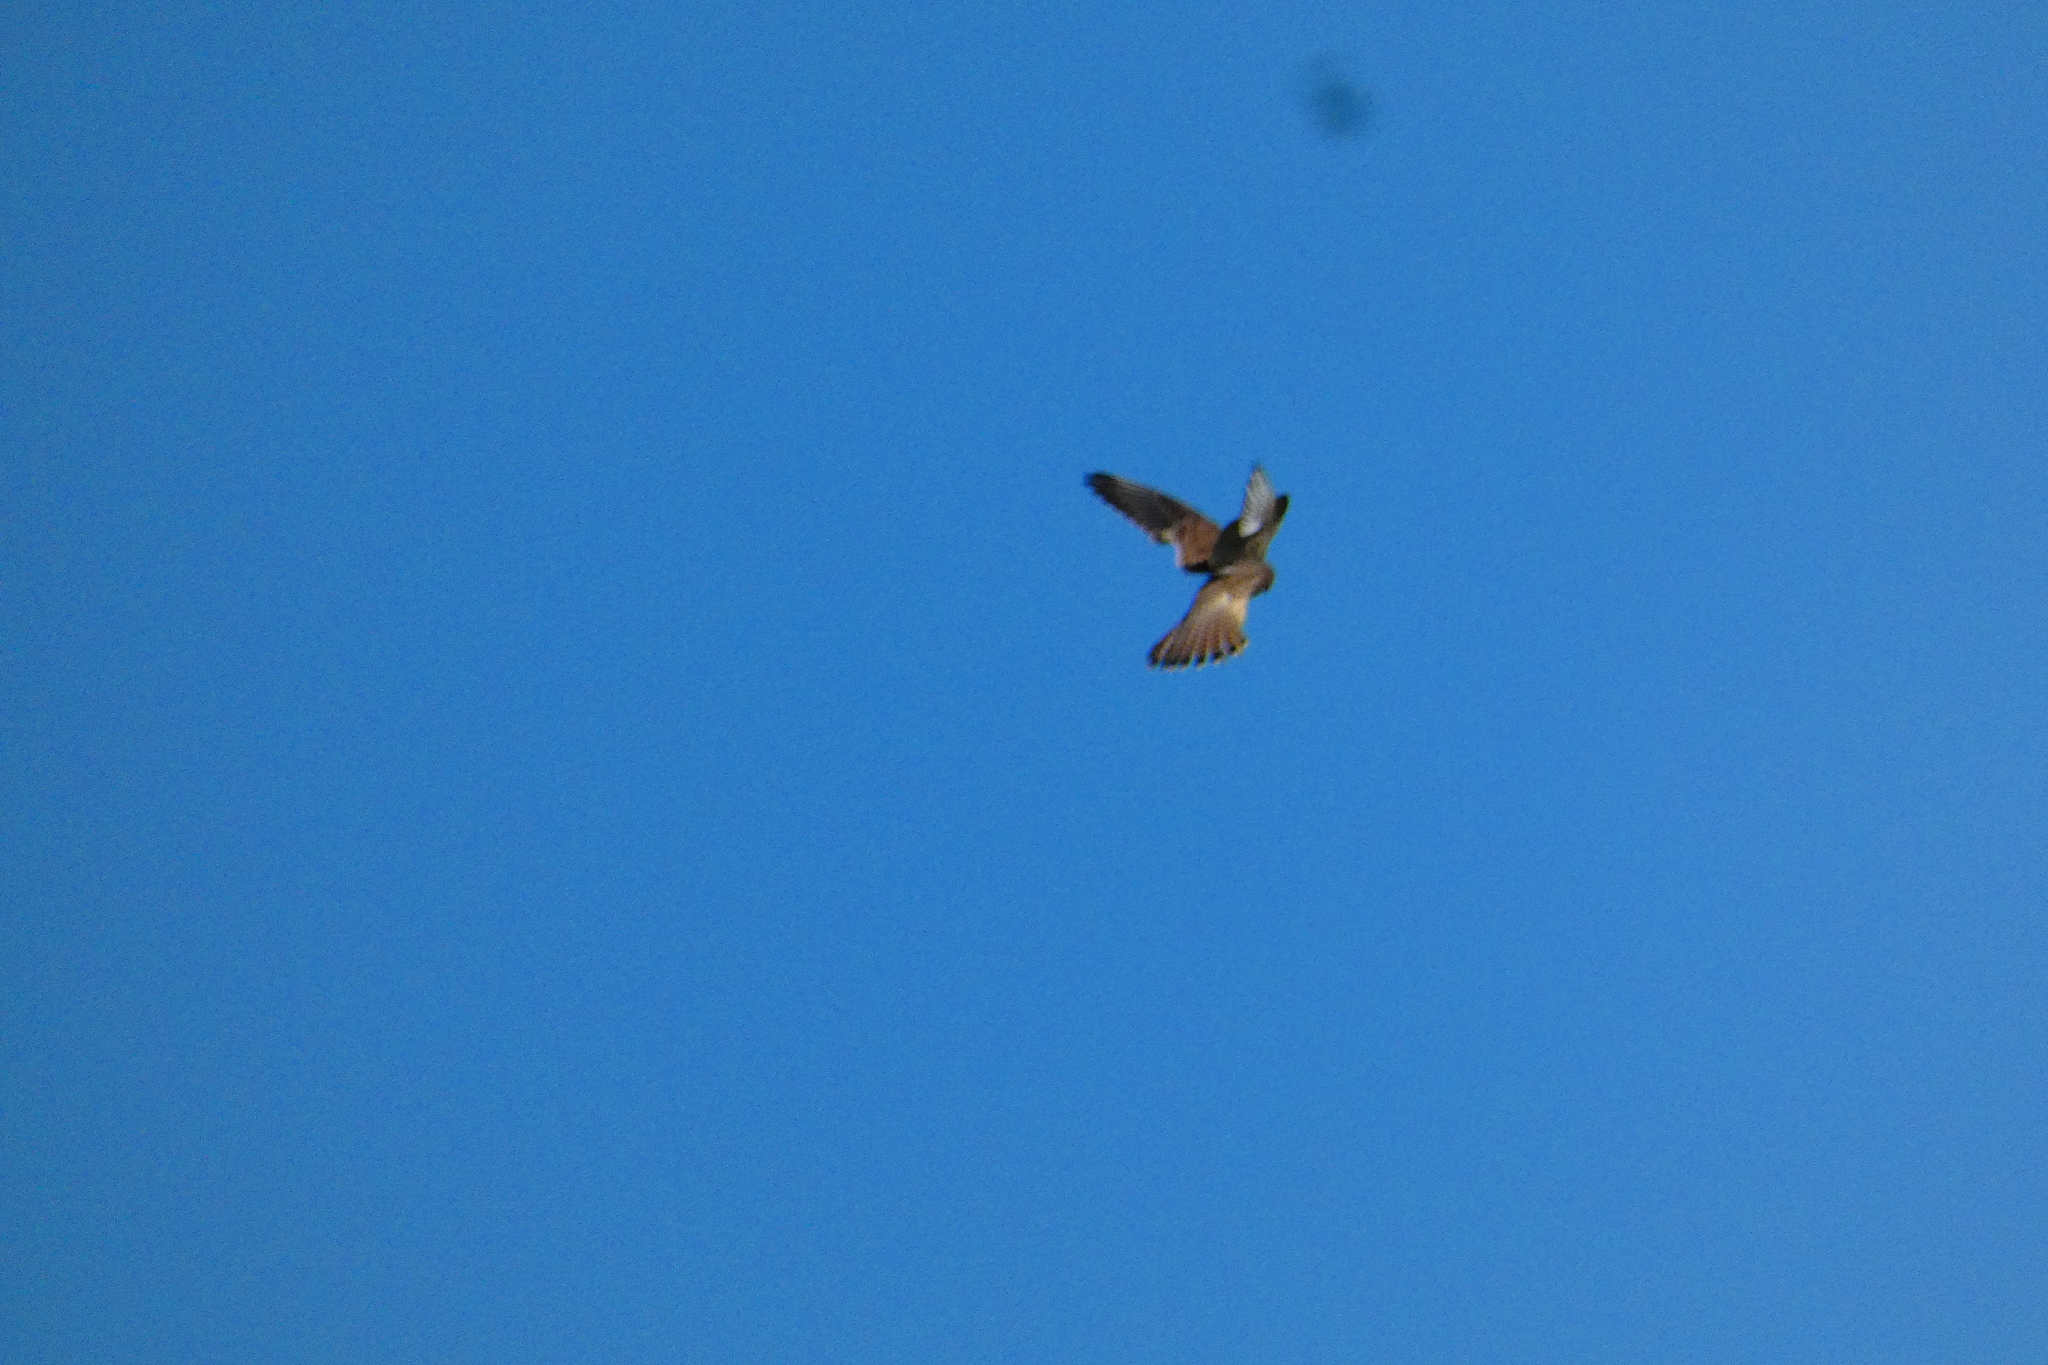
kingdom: Animalia
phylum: Chordata
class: Aves
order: Falconiformes
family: Falconidae
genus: Falco
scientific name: Falco tinnunculus
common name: Common kestrel
